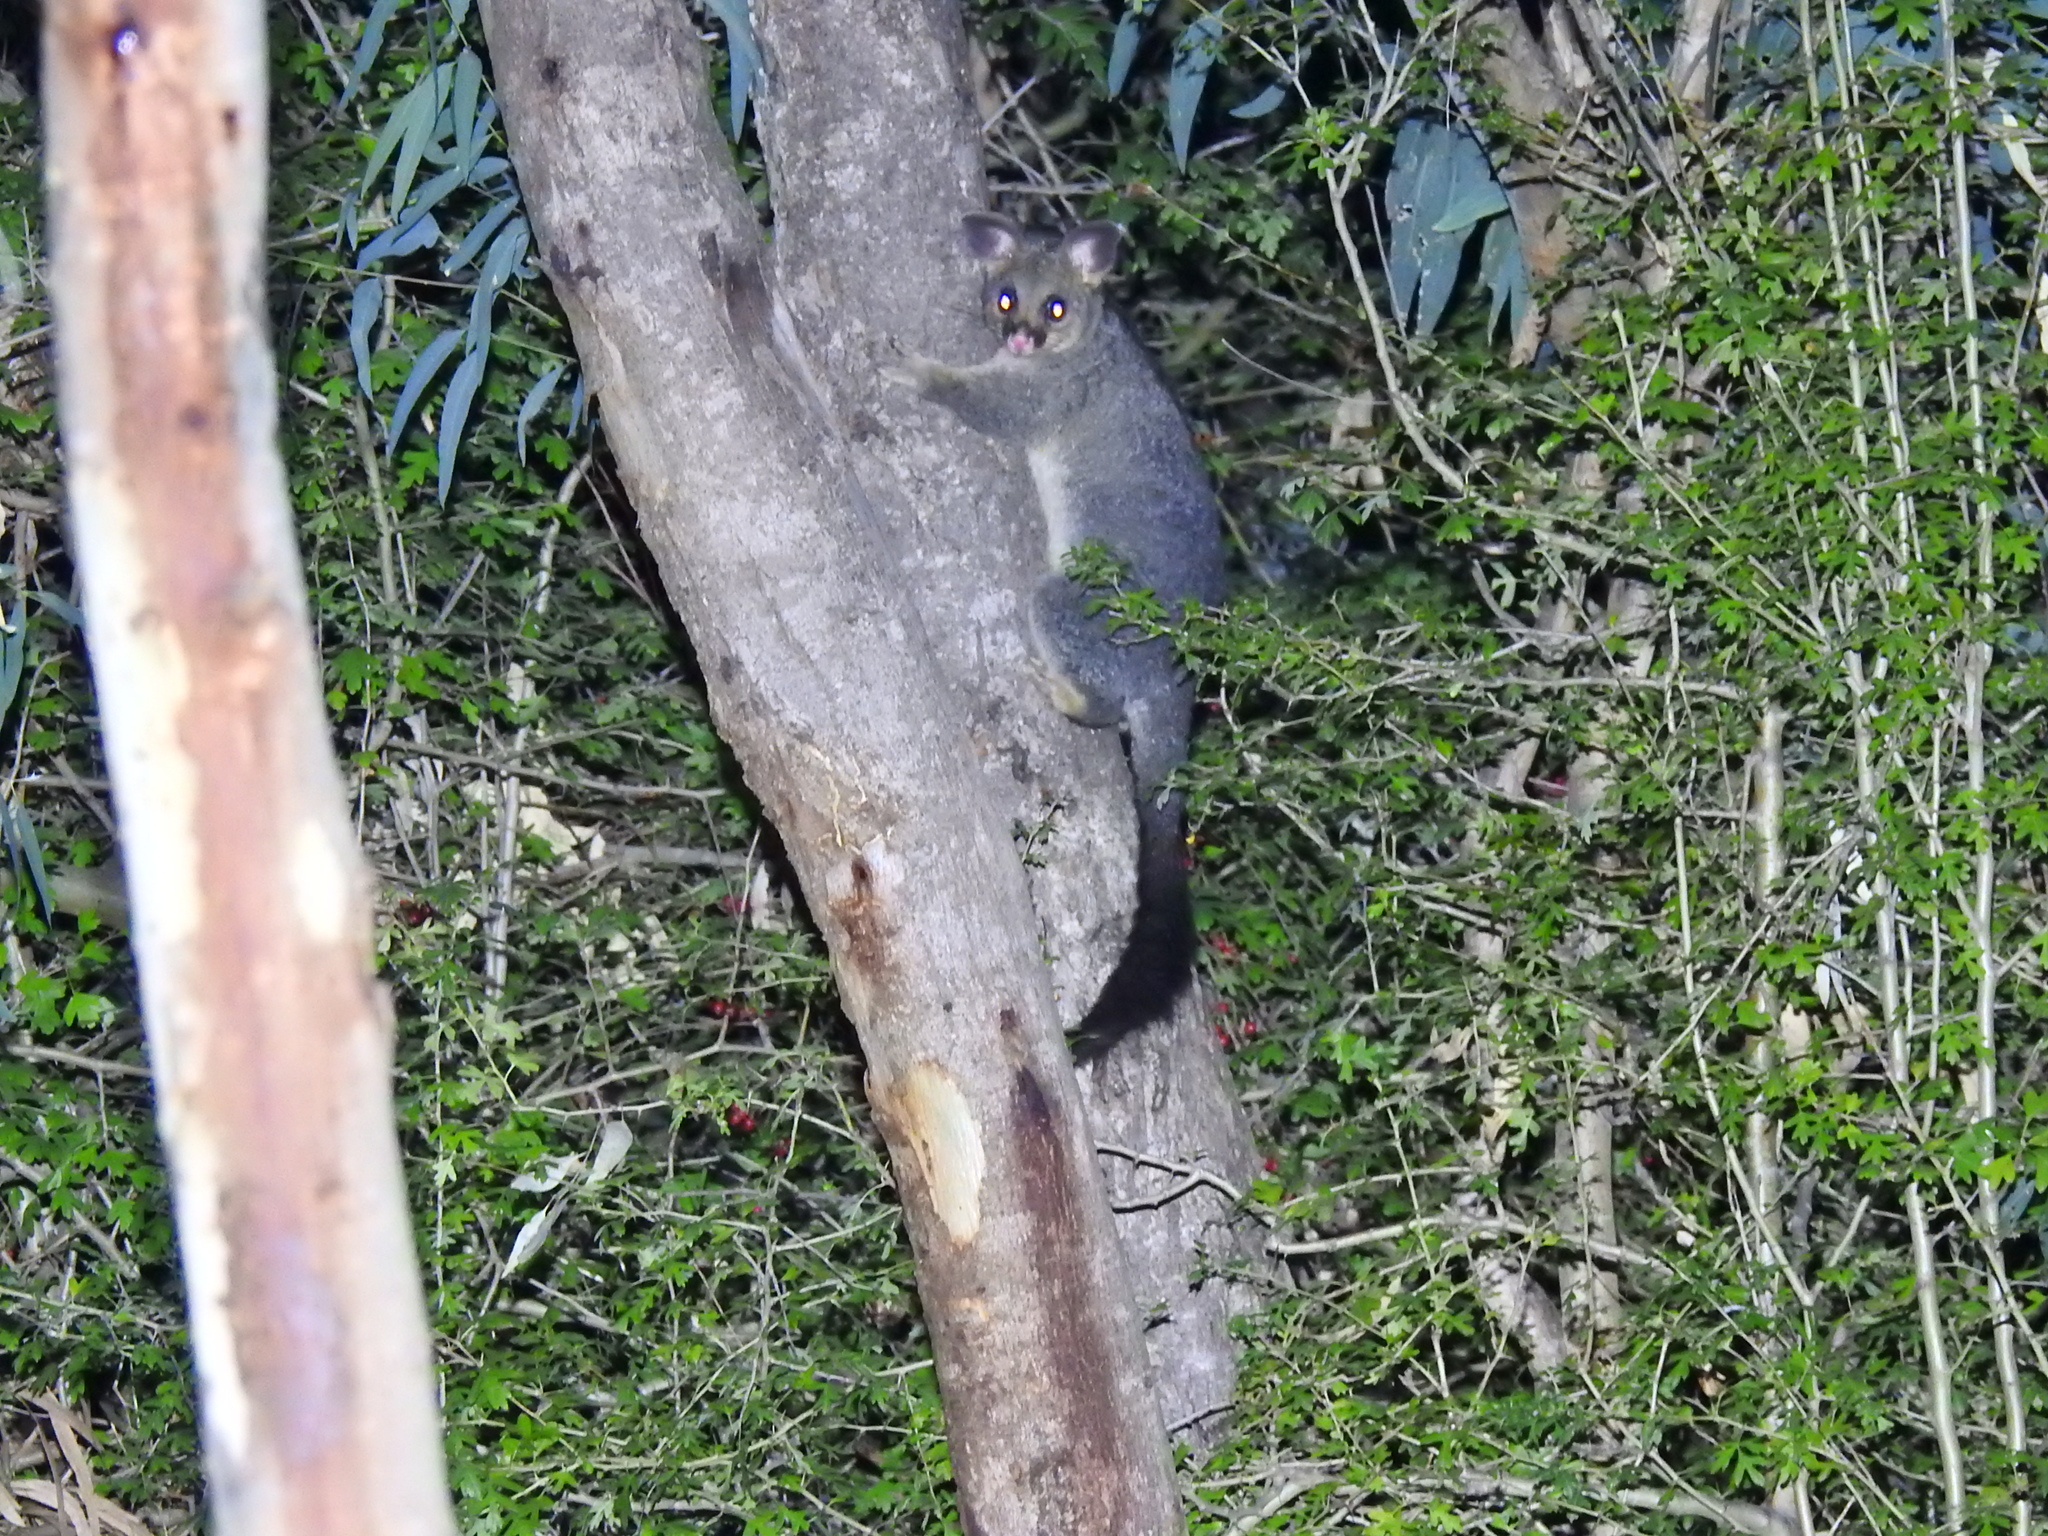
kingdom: Animalia
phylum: Chordata
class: Mammalia
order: Diprotodontia
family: Phalangeridae
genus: Trichosurus
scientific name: Trichosurus vulpecula
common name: Common brushtail
